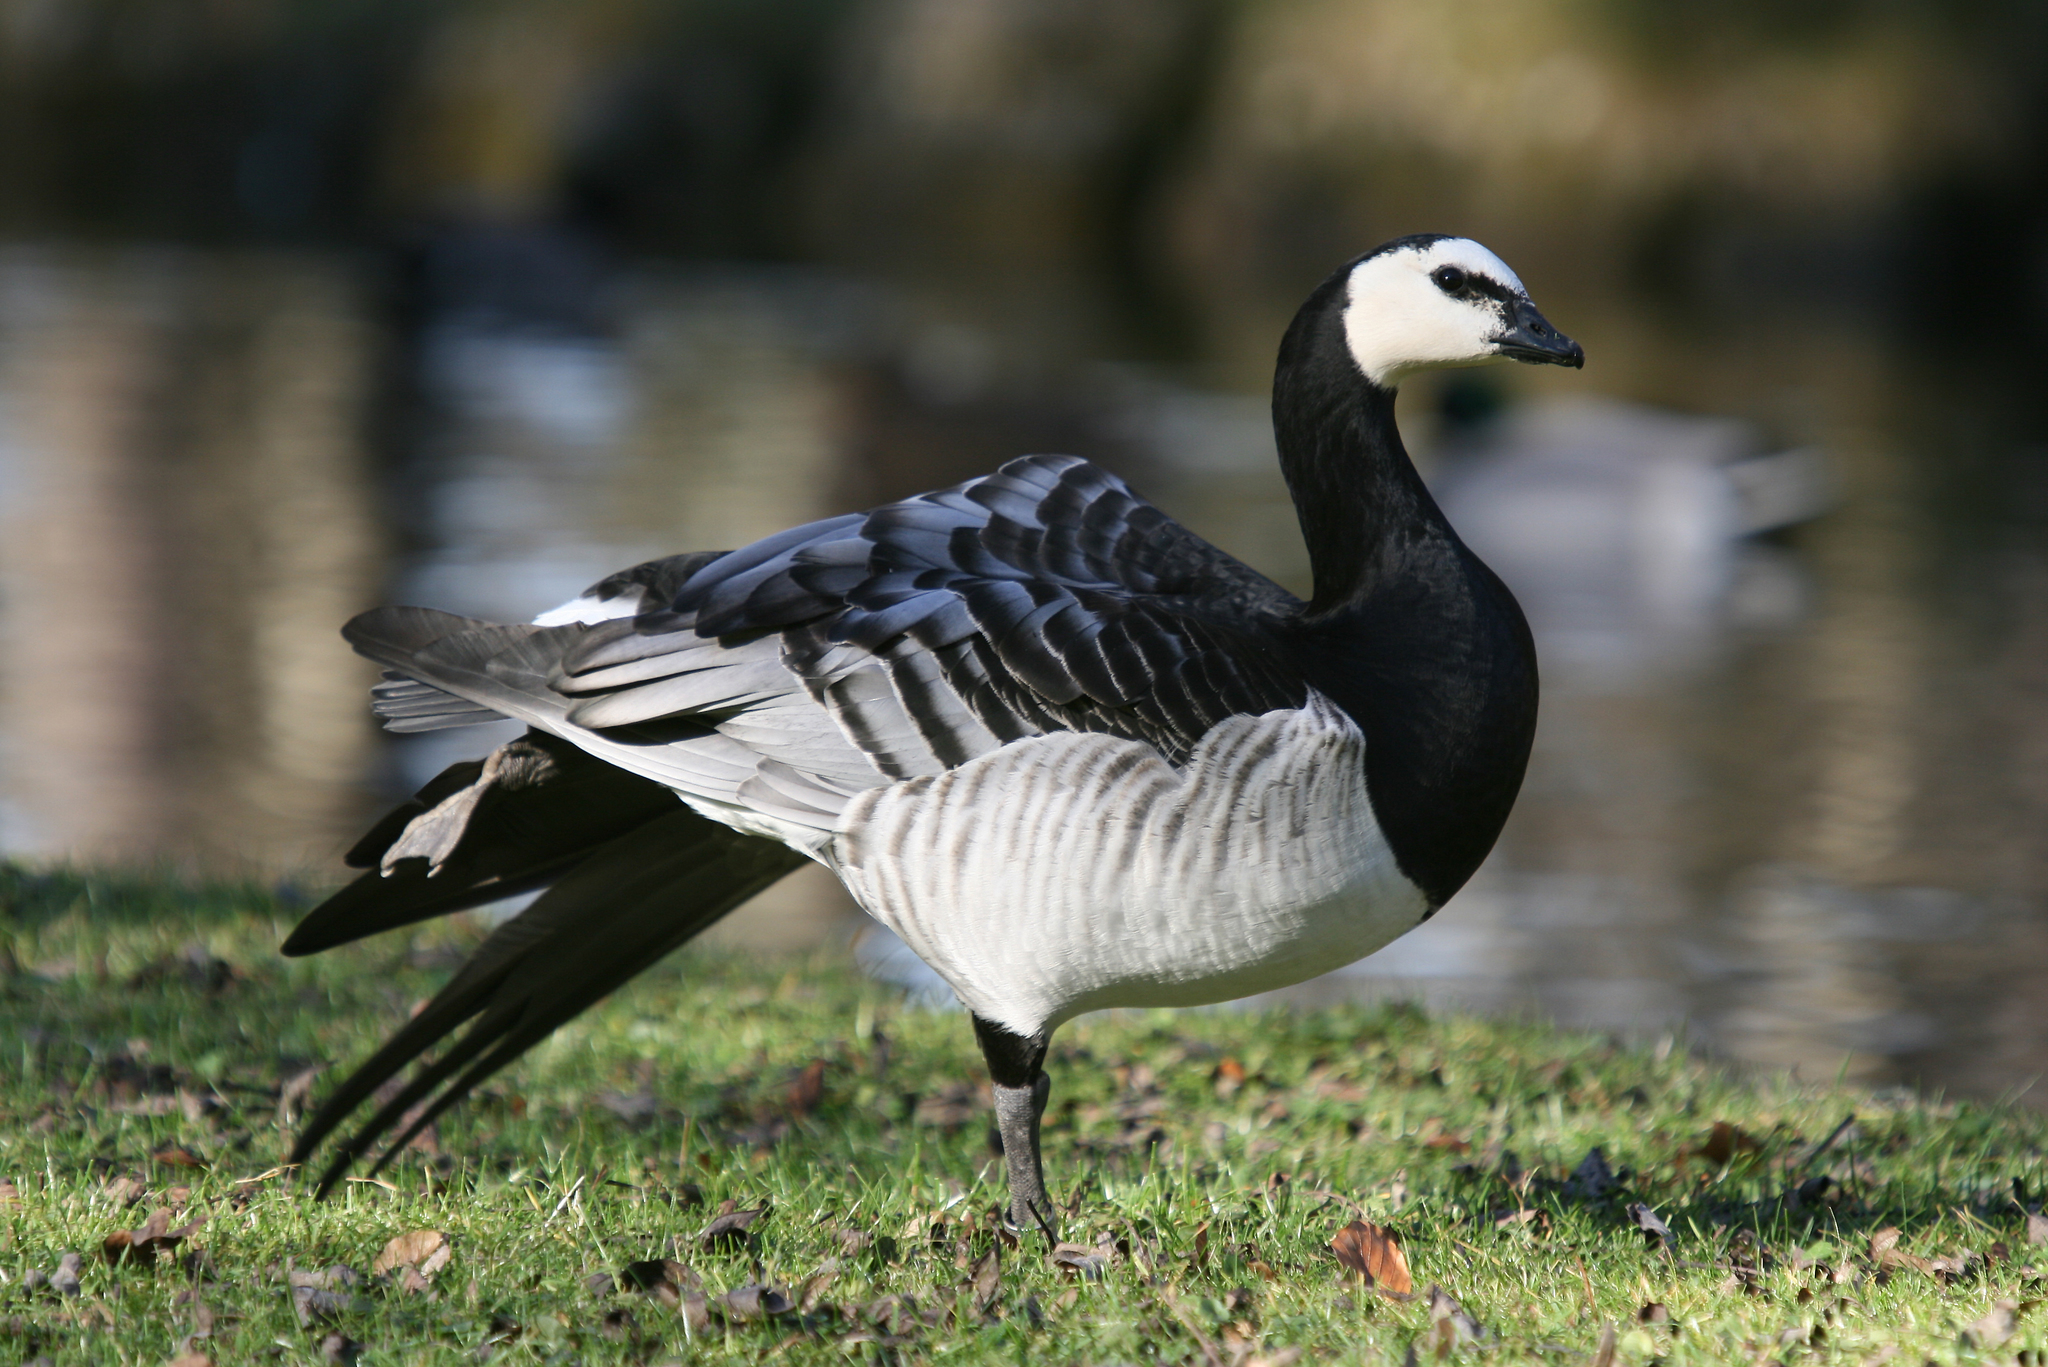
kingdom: Animalia
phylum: Chordata
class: Aves
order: Anseriformes
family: Anatidae
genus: Branta
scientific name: Branta leucopsis
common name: Barnacle goose
